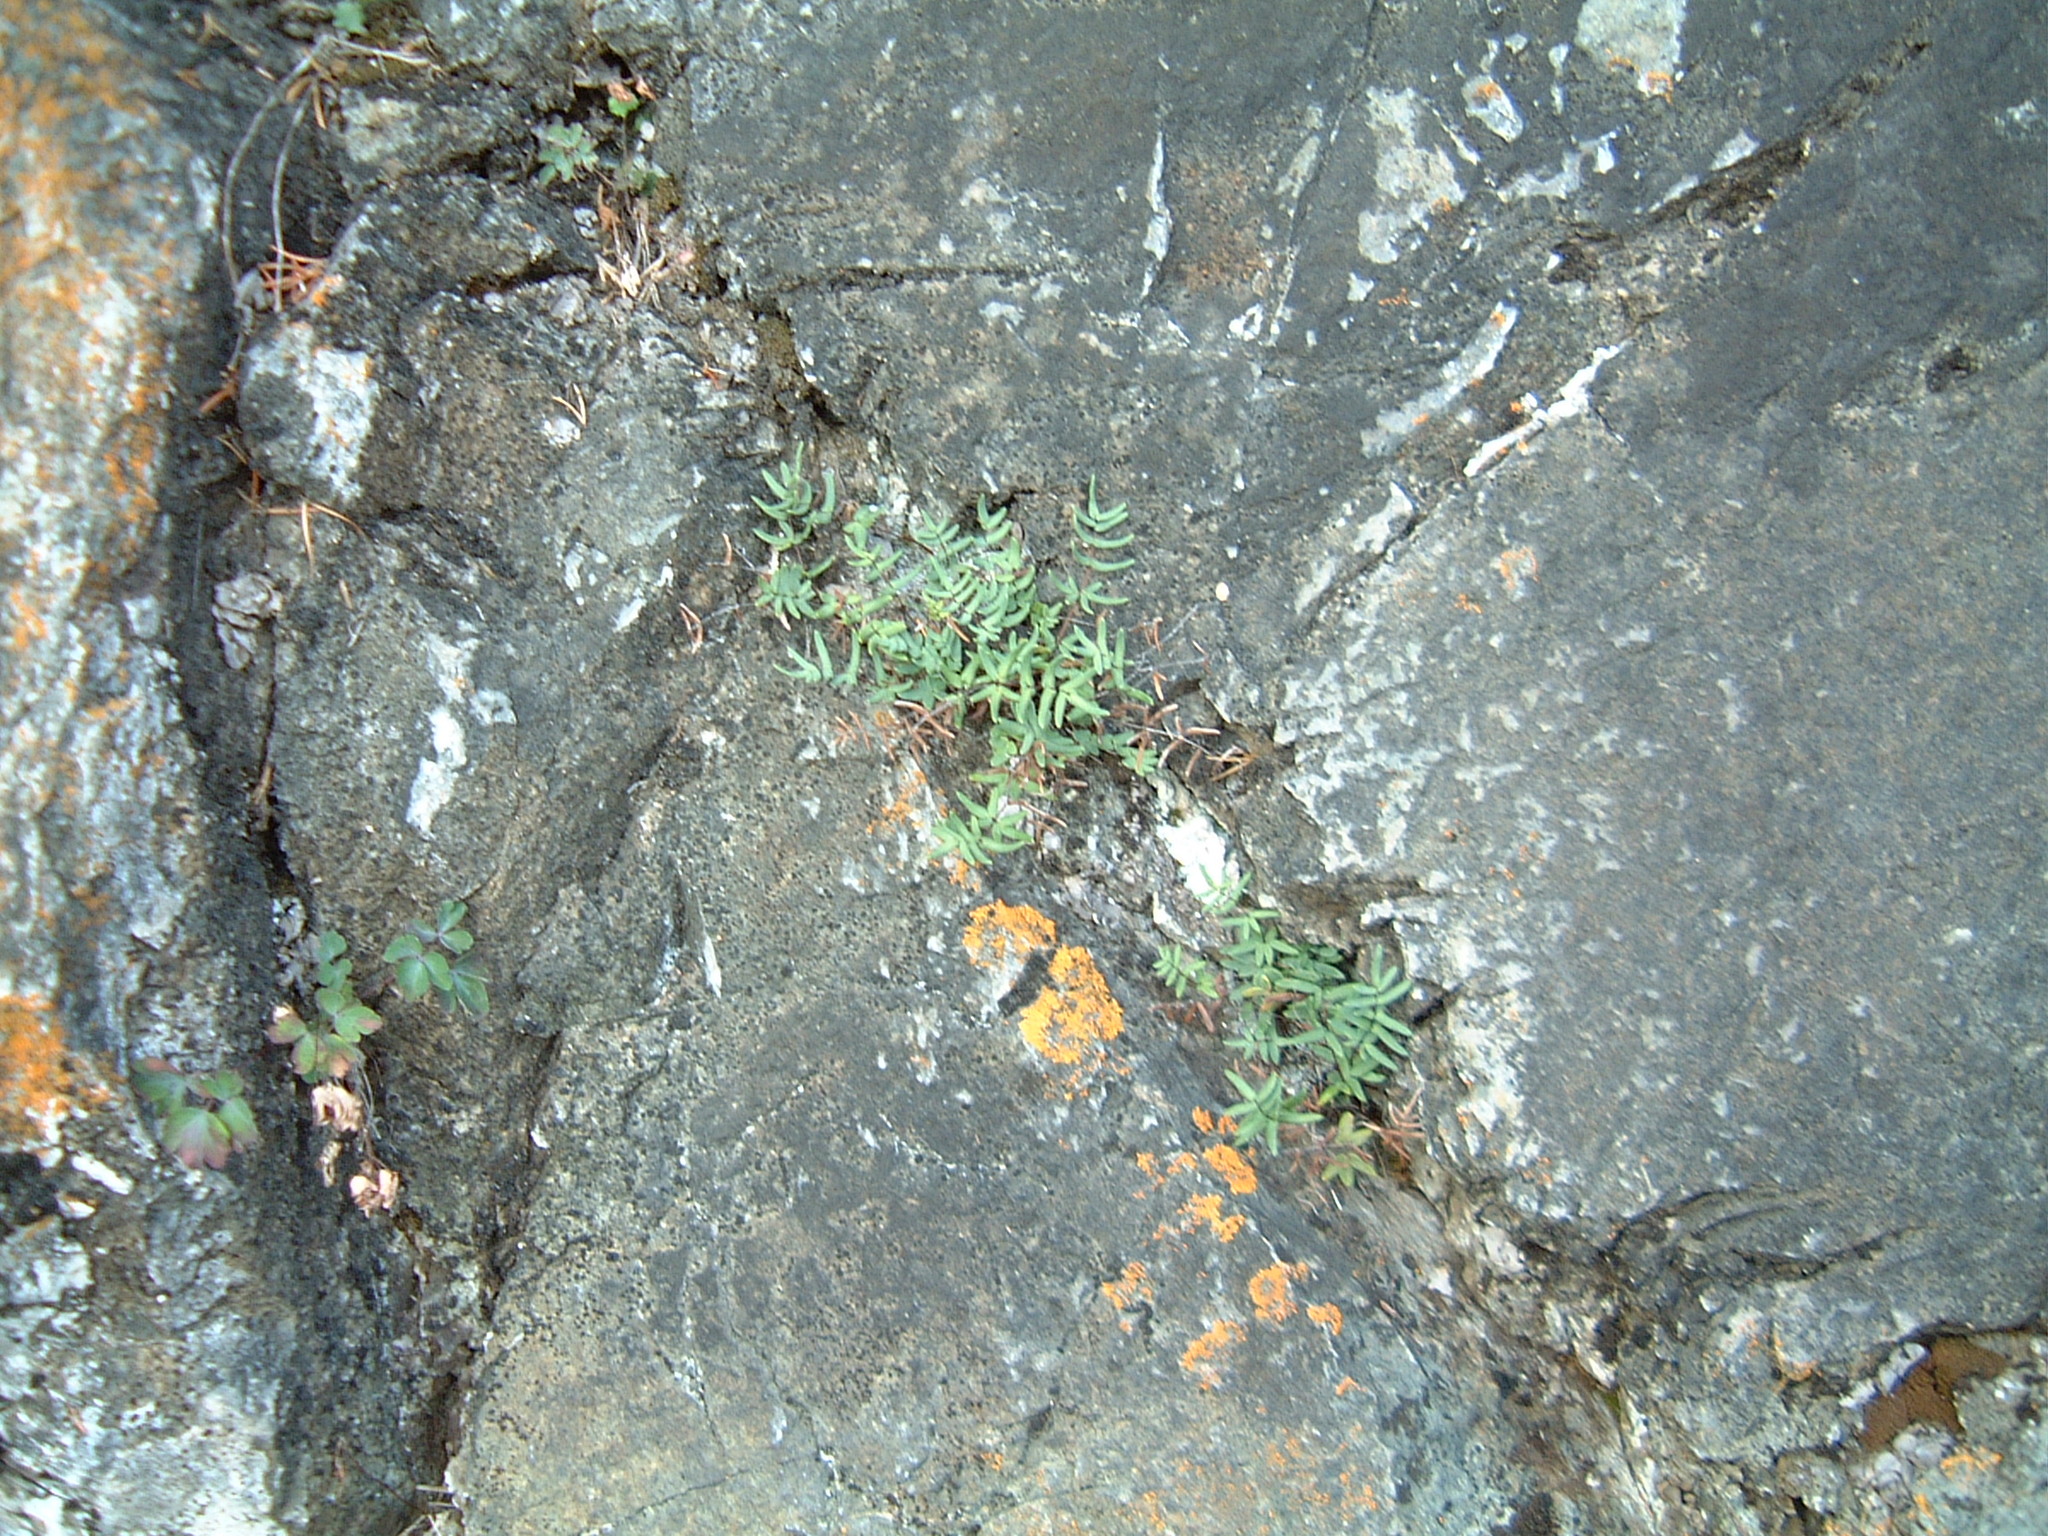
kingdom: Plantae
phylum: Tracheophyta
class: Polypodiopsida
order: Polypodiales
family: Pteridaceae
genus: Pellaea
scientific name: Pellaea glabella
